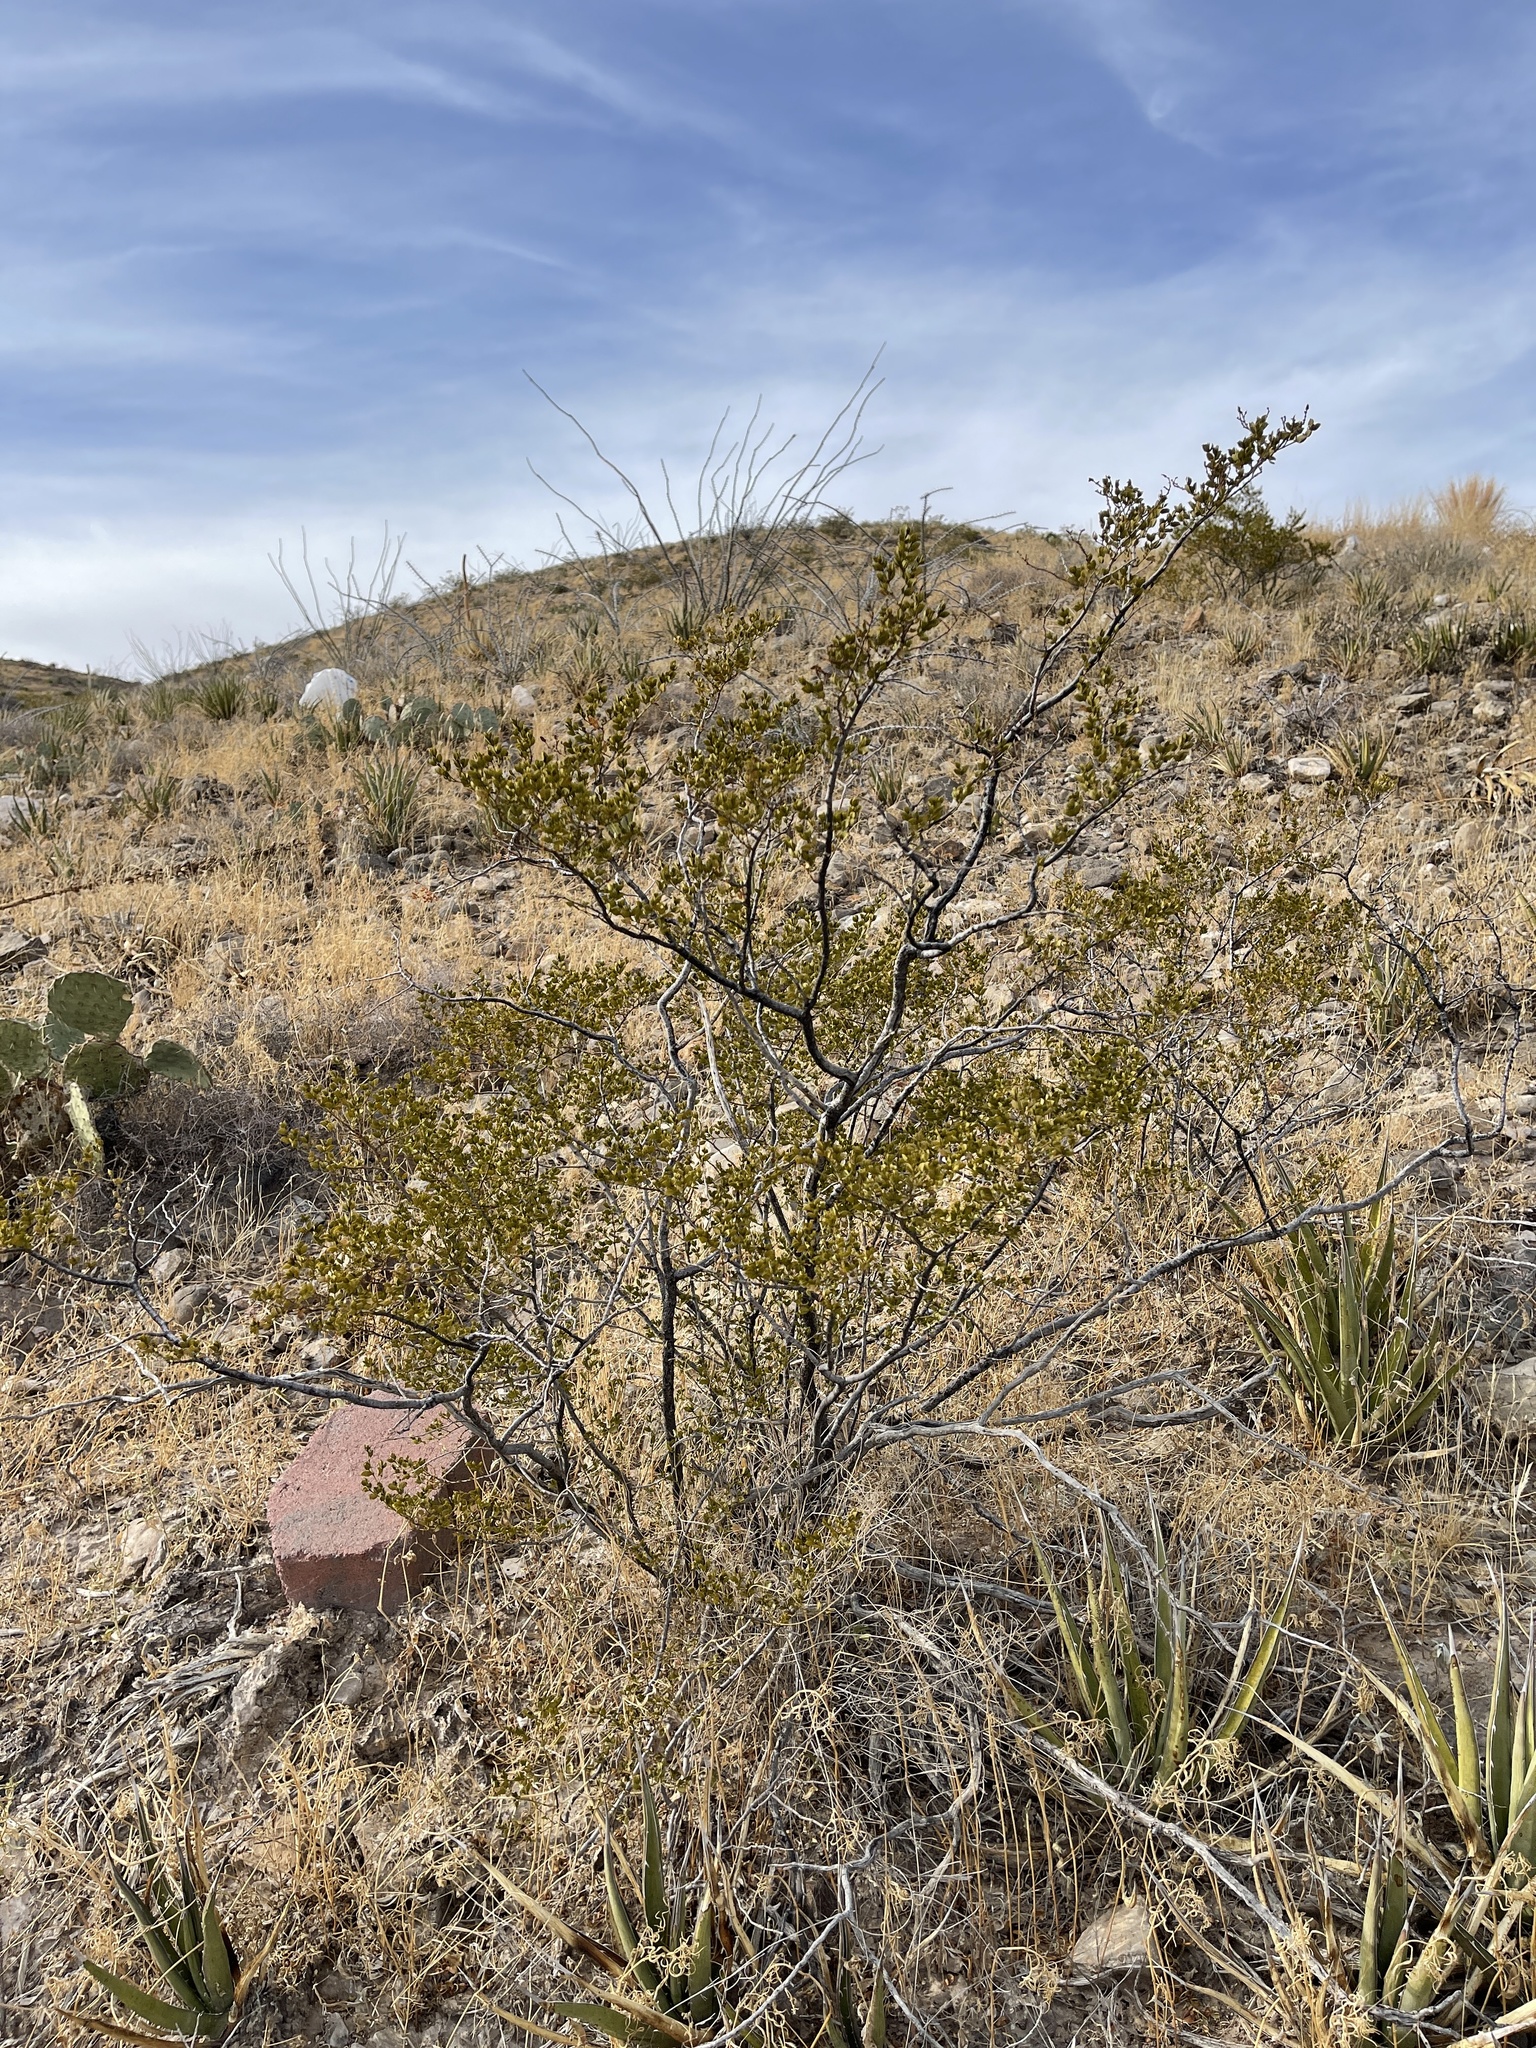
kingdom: Plantae
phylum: Tracheophyta
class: Magnoliopsida
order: Zygophyllales
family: Zygophyllaceae
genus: Larrea
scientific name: Larrea tridentata
